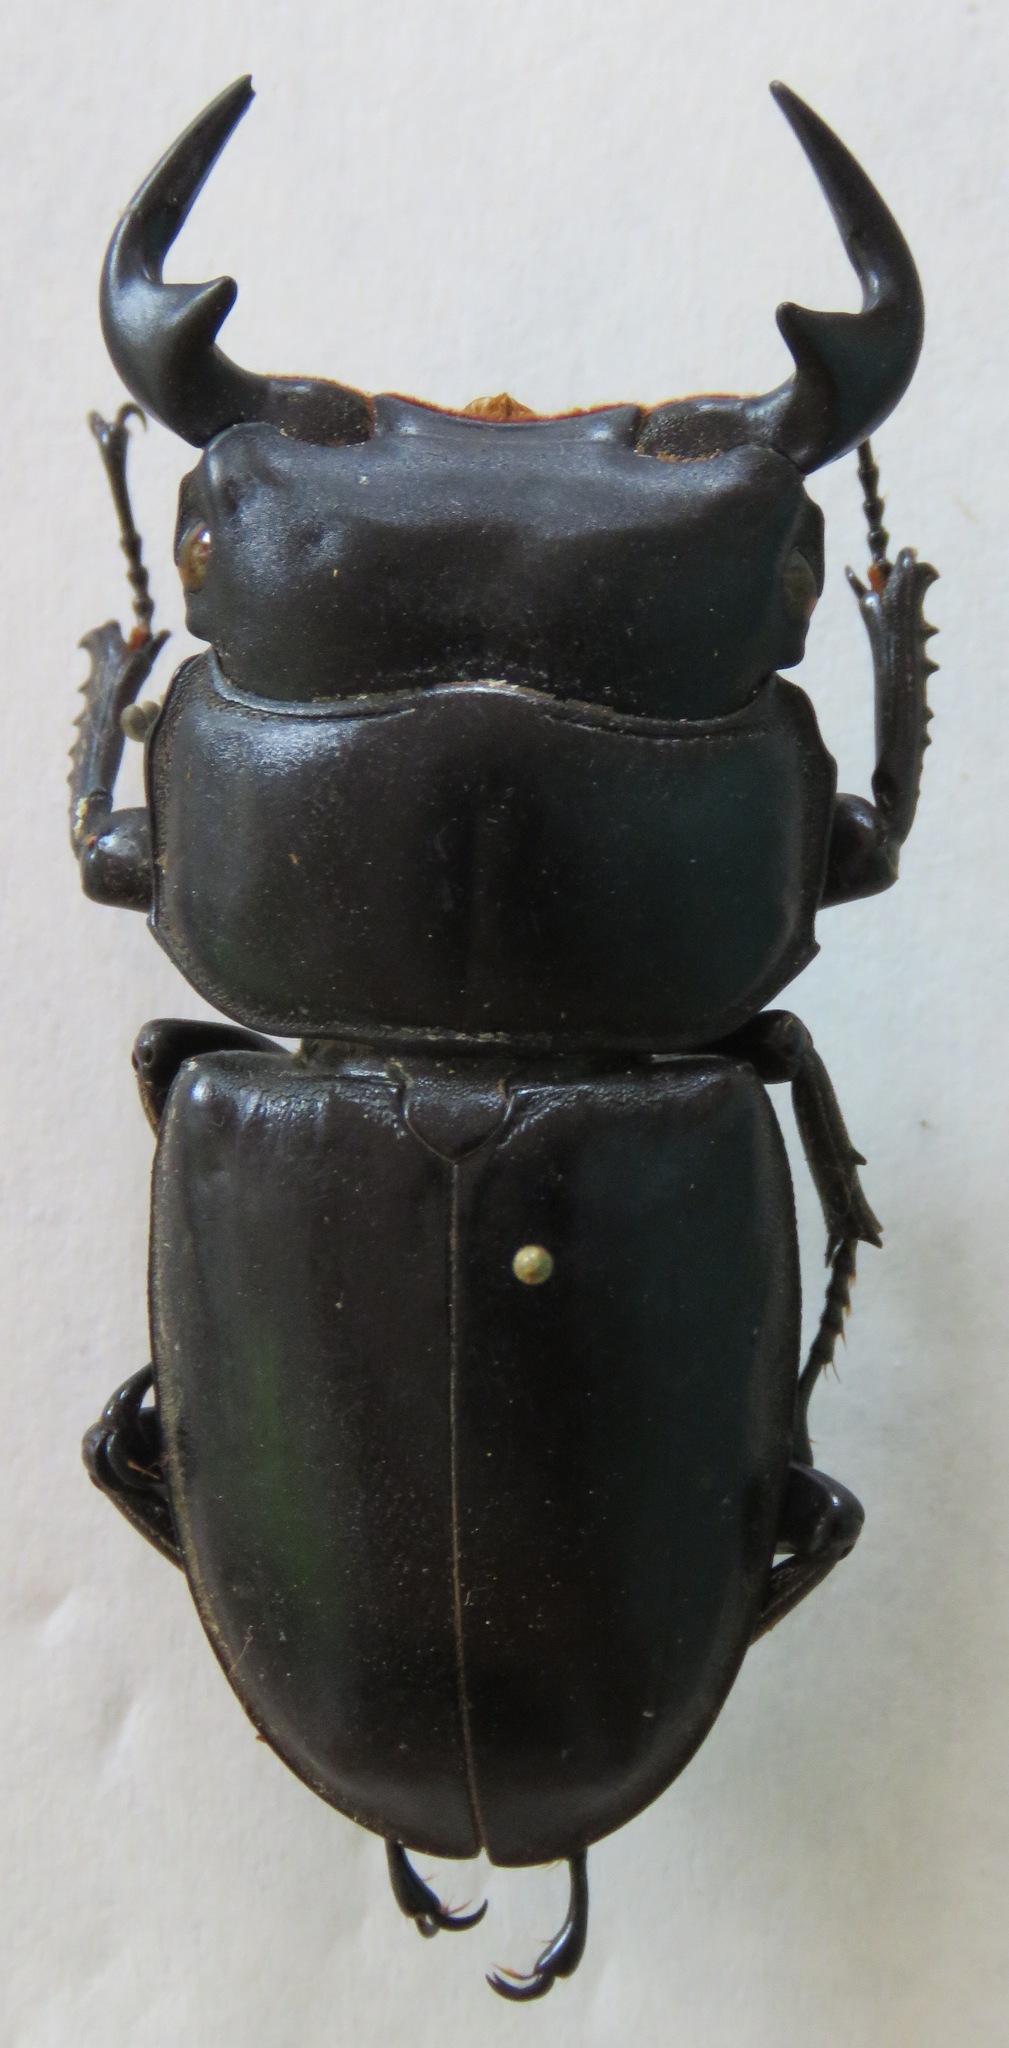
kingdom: Animalia
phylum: Arthropoda
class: Insecta
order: Coleoptera
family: Lucanidae
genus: Dorcus
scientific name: Dorcus antaeus
